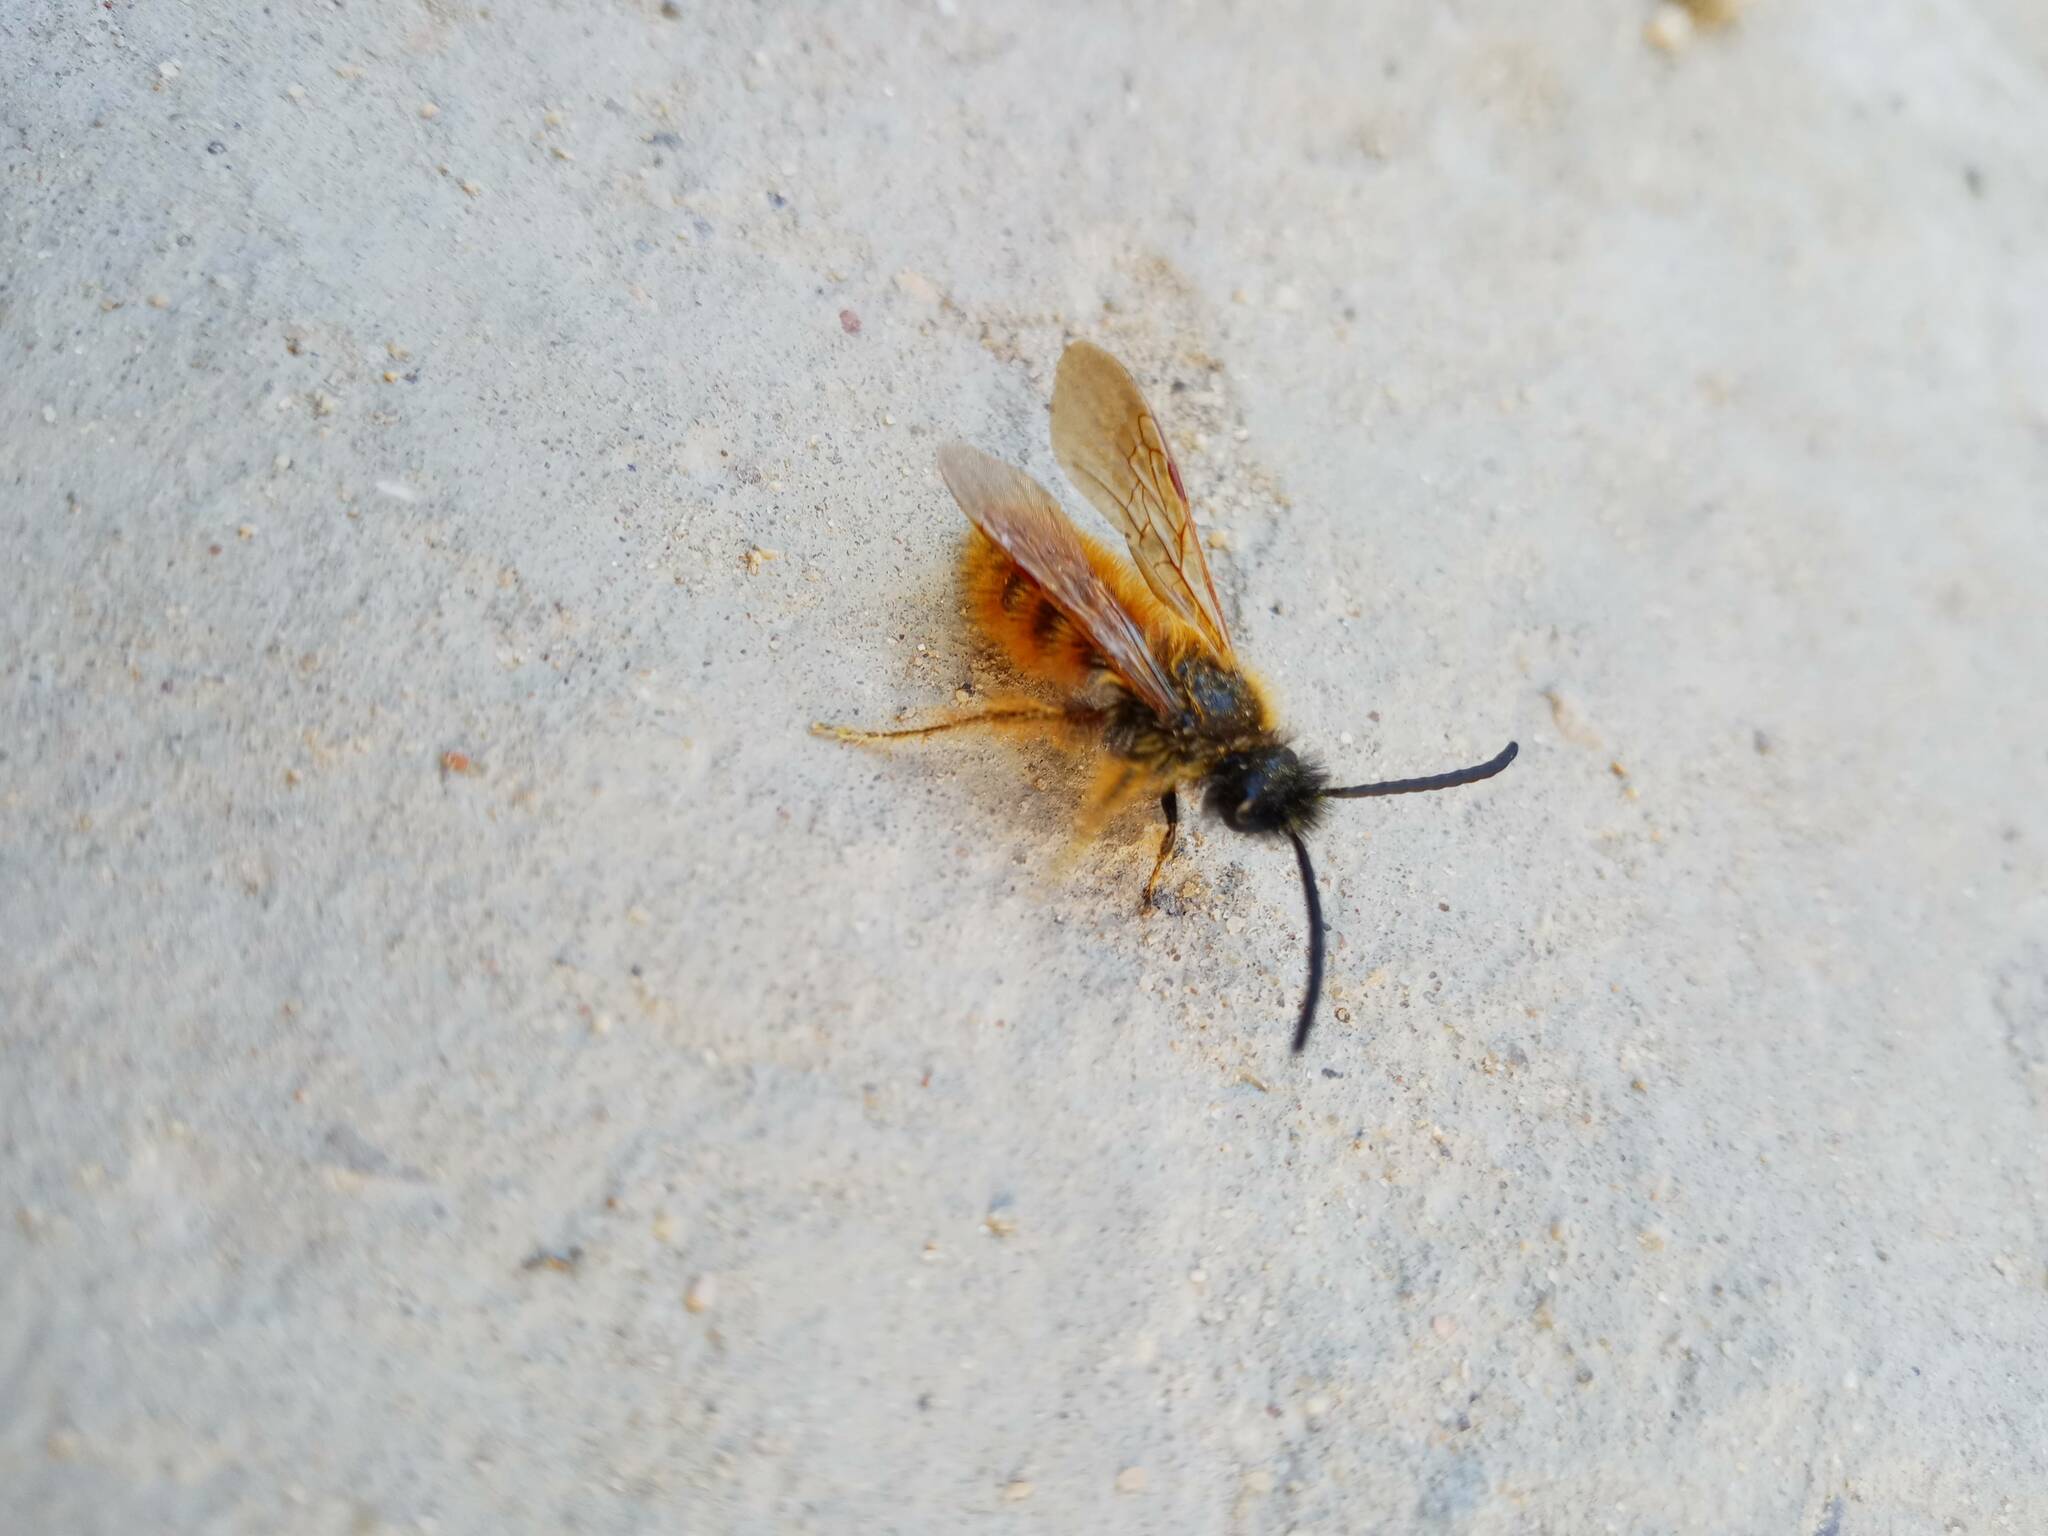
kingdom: Animalia
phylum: Arthropoda
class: Insecta
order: Hymenoptera
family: Scoliidae
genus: Dasyscolia
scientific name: Dasyscolia ciliata
